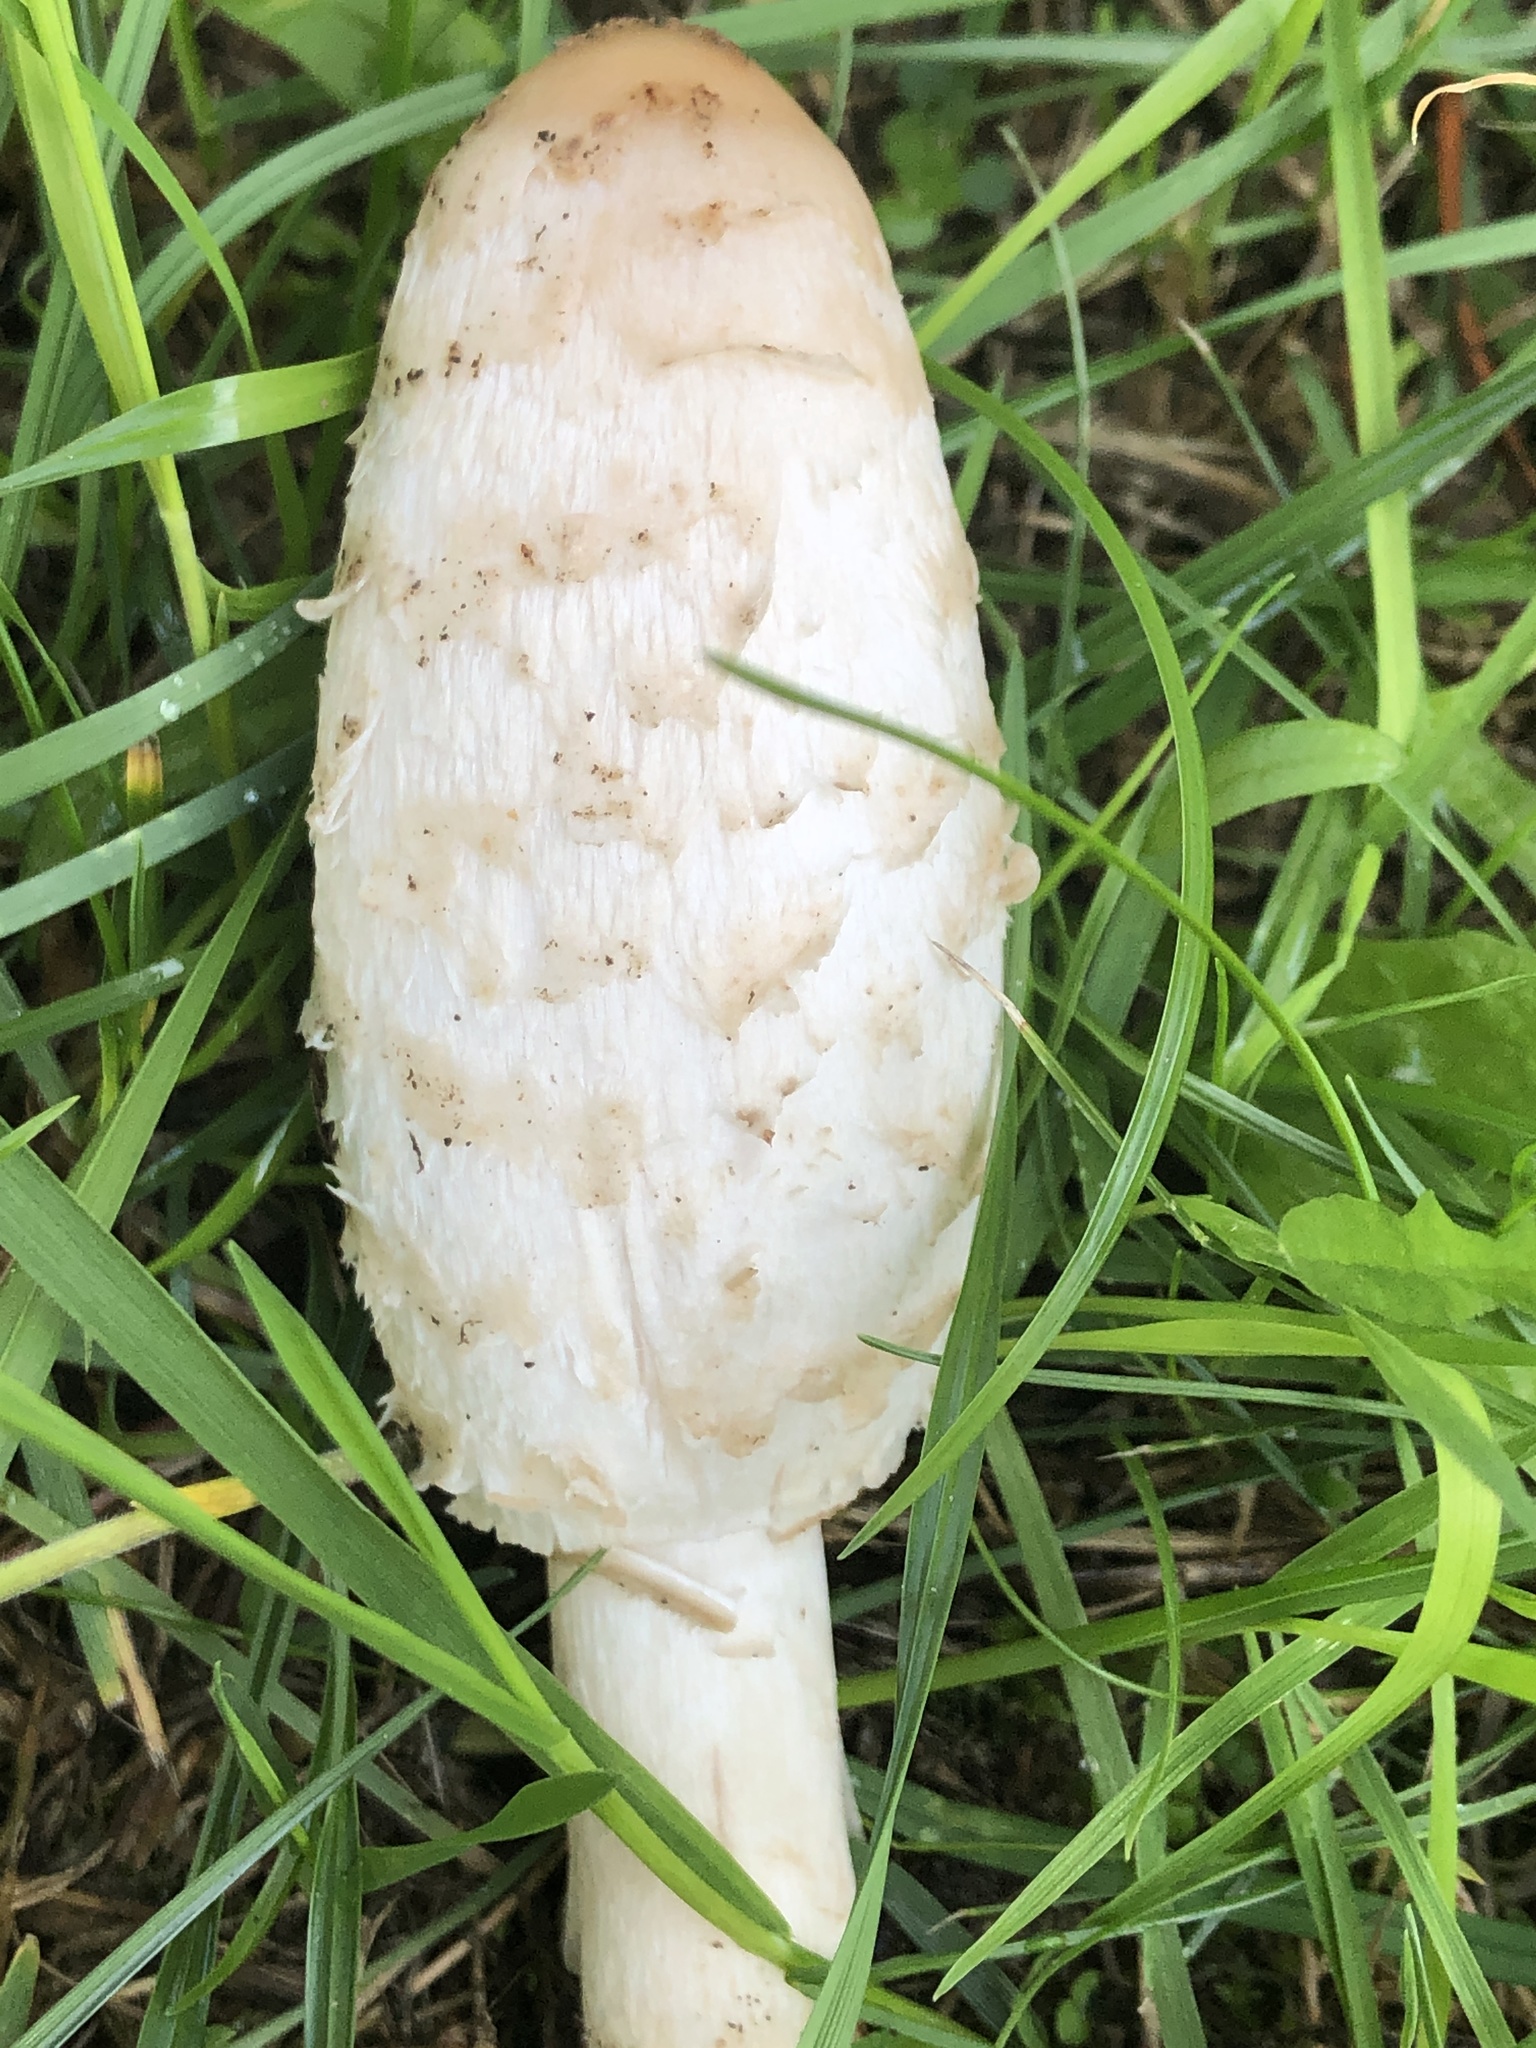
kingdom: Fungi
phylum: Basidiomycota
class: Agaricomycetes
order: Agaricales
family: Agaricaceae
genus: Coprinus
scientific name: Coprinus comatus
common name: Lawyer's wig
